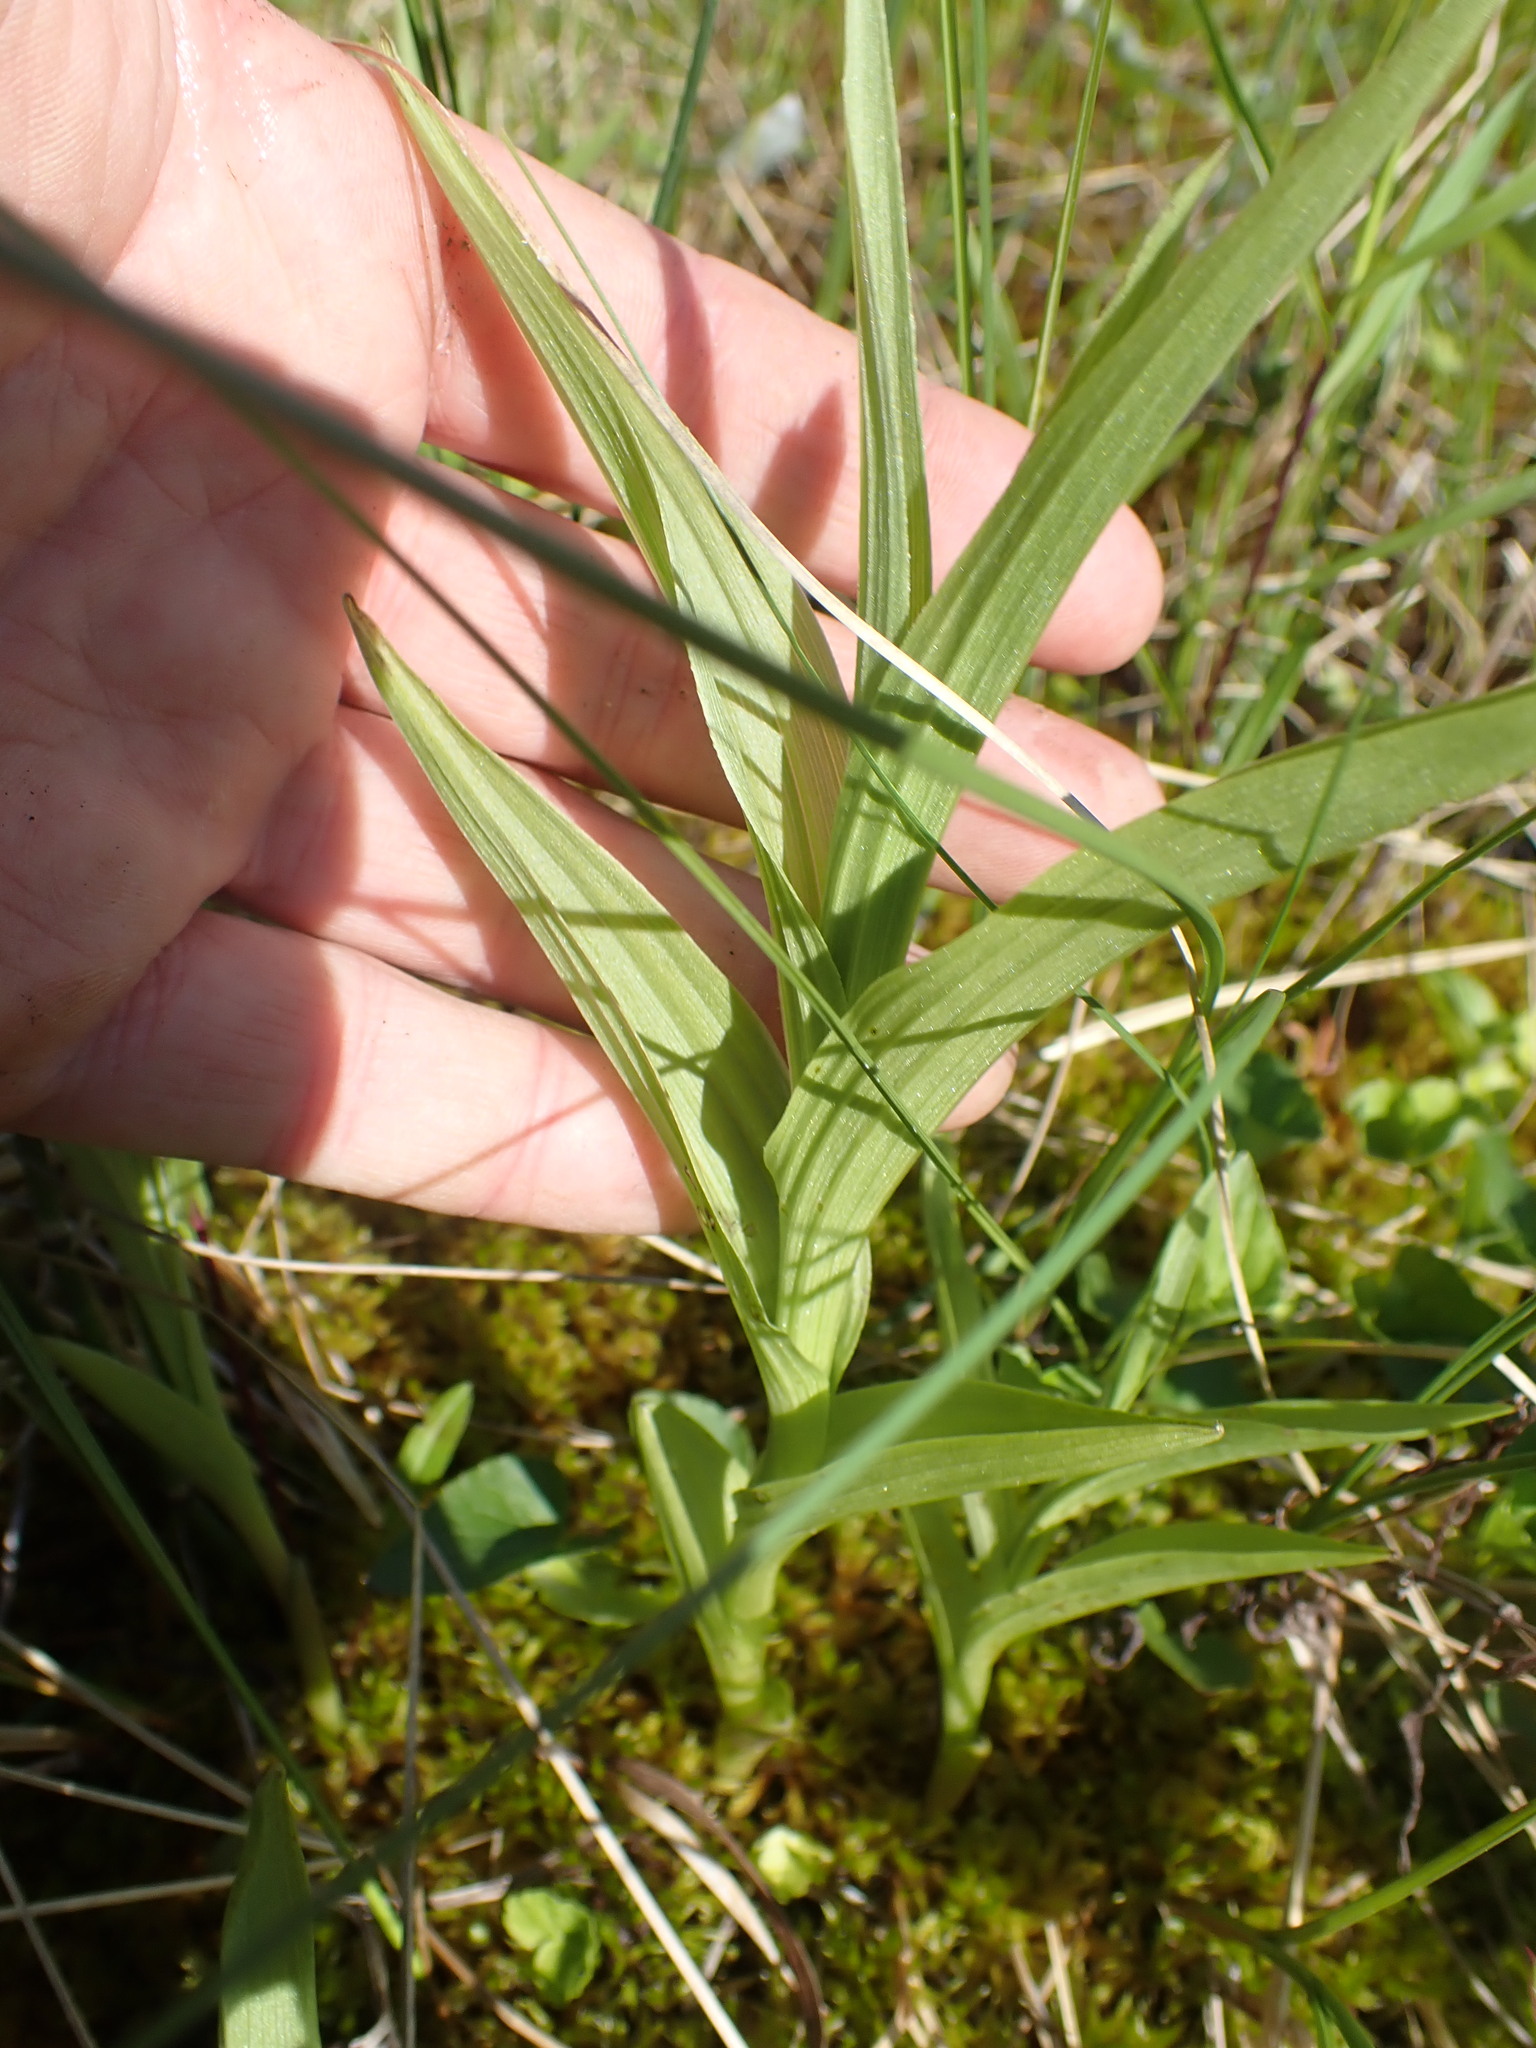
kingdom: Plantae
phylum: Tracheophyta
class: Liliopsida
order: Asparagales
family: Orchidaceae
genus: Epipactis
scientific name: Epipactis gigantea
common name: Chatterbox
